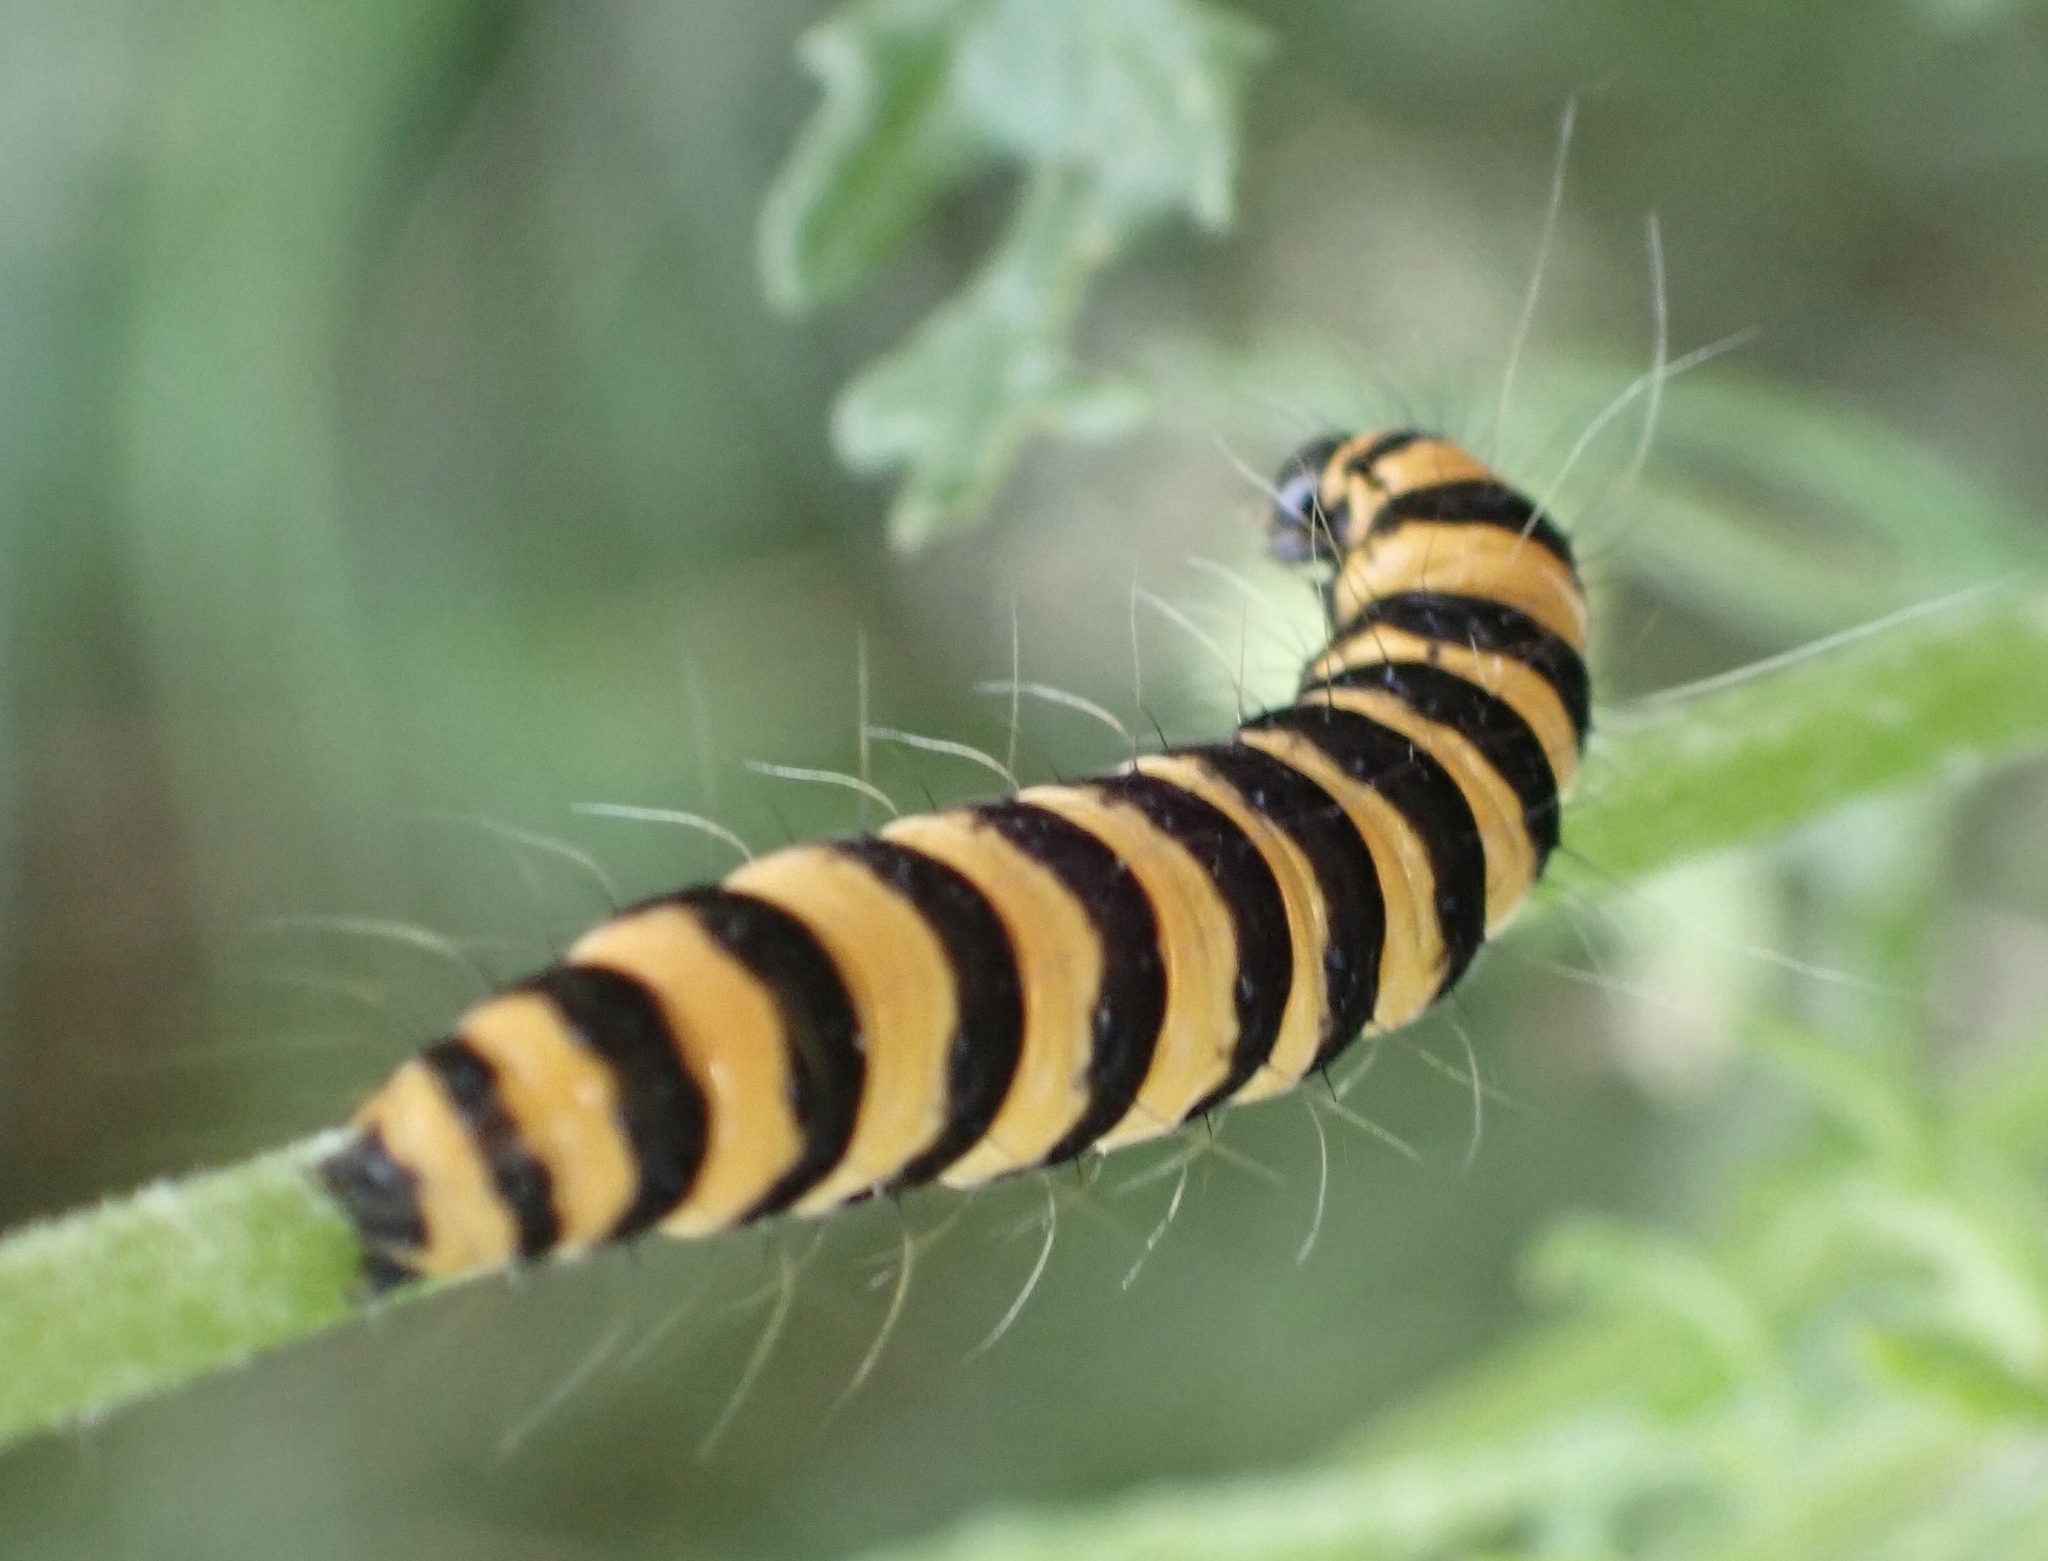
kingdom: Animalia
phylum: Arthropoda
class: Insecta
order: Lepidoptera
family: Erebidae
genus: Tyria
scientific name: Tyria jacobaeae
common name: Cinnabar
